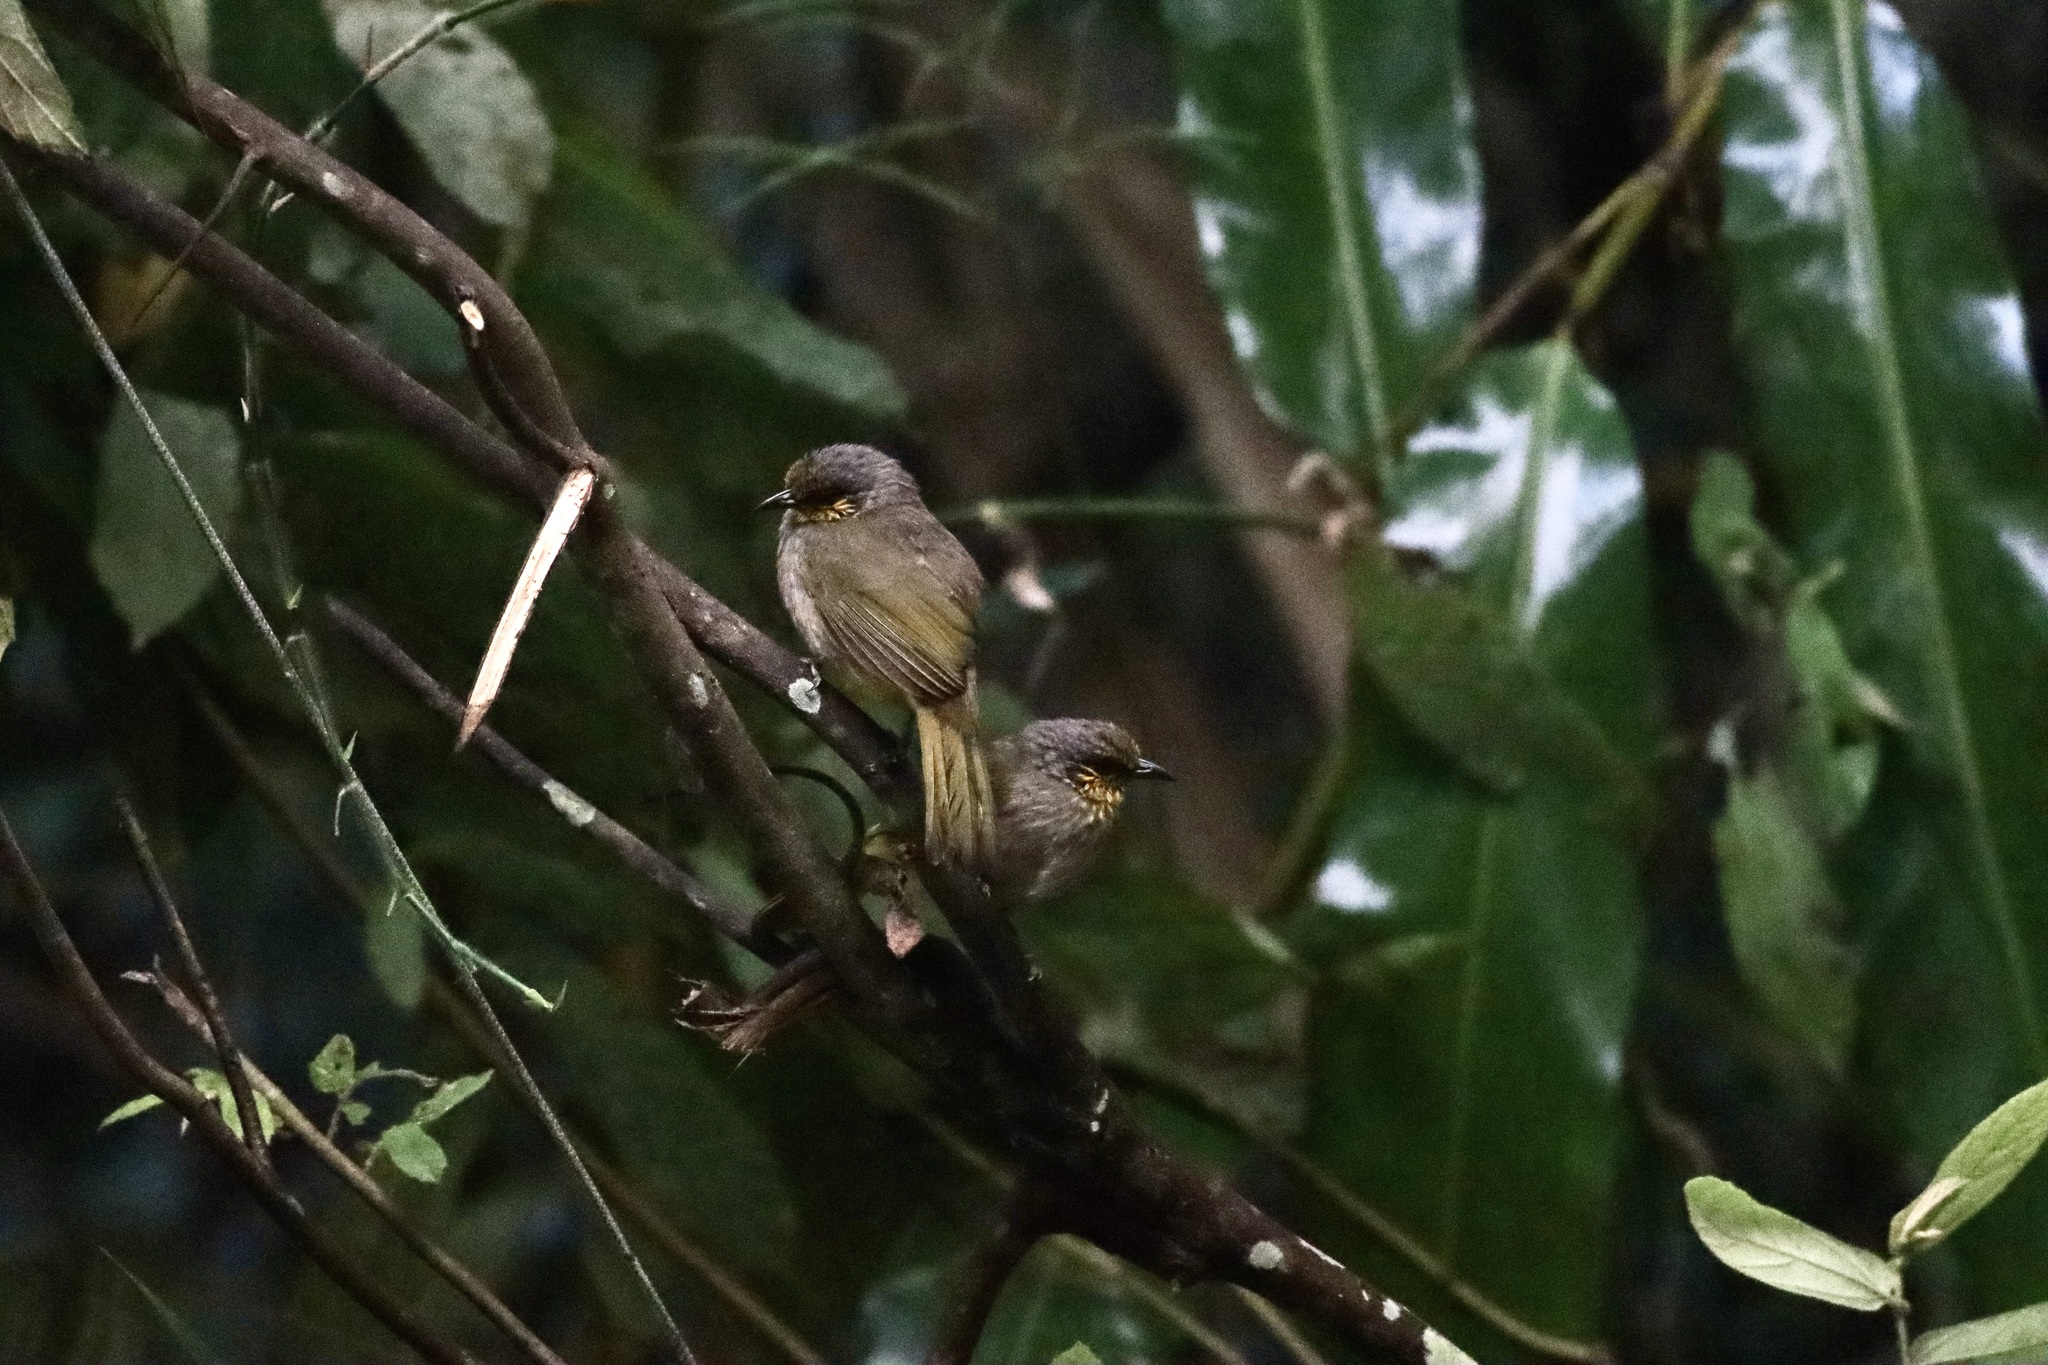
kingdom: Animalia
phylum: Chordata
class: Aves
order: Passeriformes
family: Pycnonotidae
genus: Pycnonotus
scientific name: Pycnonotus finlaysoni
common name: Stripe-throated bulbul
